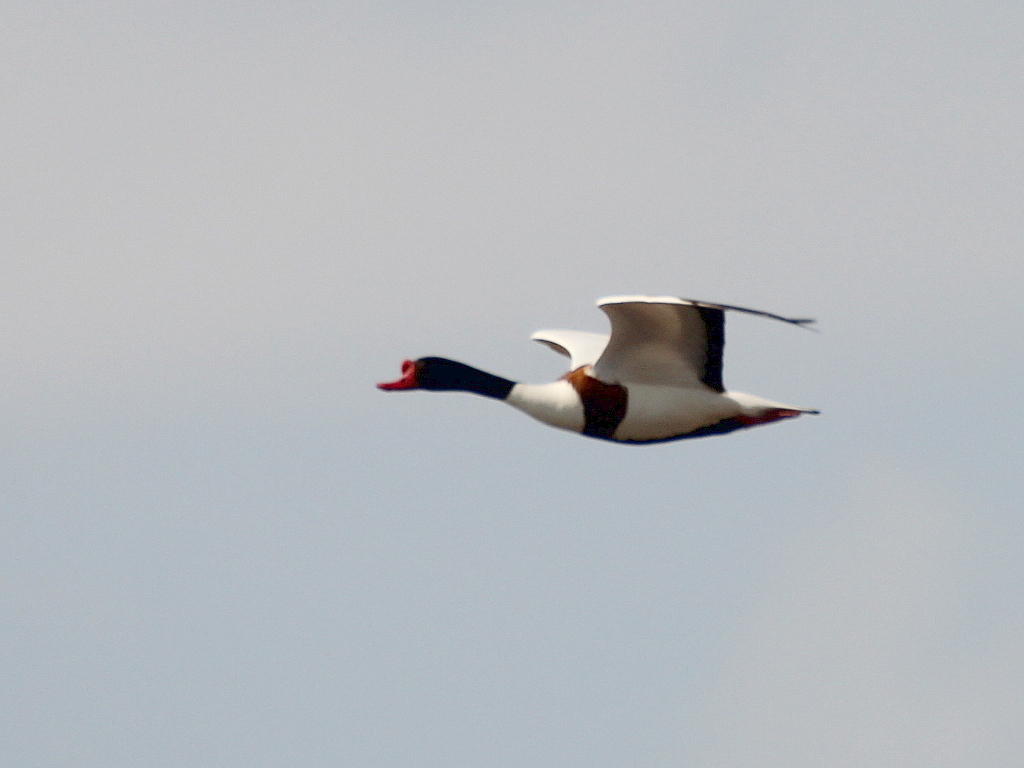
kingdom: Animalia
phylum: Chordata
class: Aves
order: Anseriformes
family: Anatidae
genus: Tadorna
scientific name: Tadorna tadorna
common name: Common shelduck
